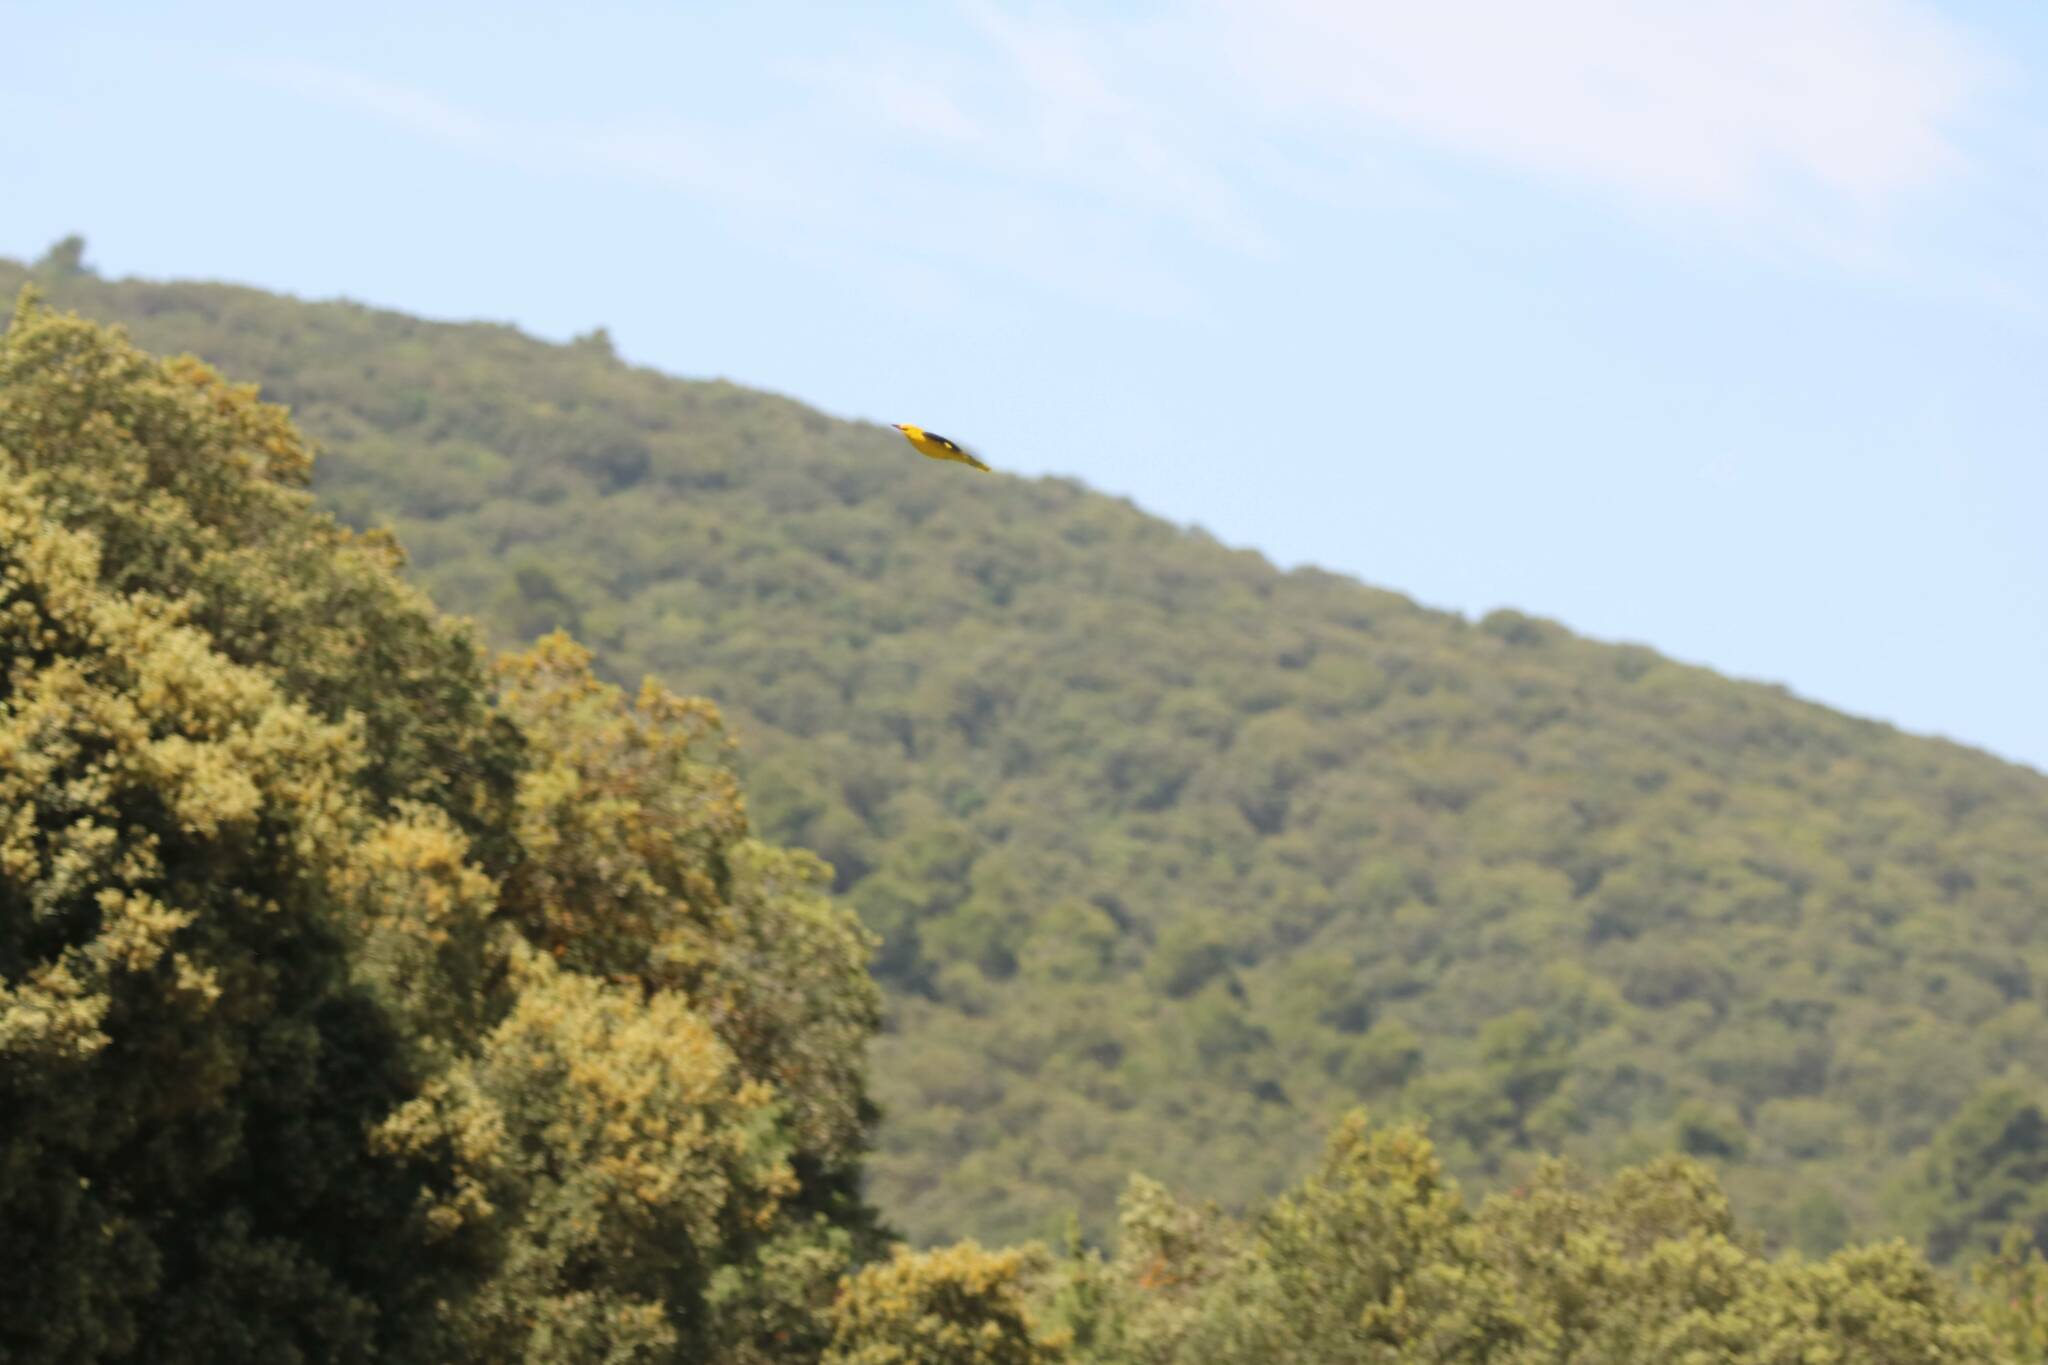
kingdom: Animalia
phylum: Chordata
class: Aves
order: Passeriformes
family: Oriolidae
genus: Oriolus
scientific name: Oriolus oriolus
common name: Eurasian golden oriole
